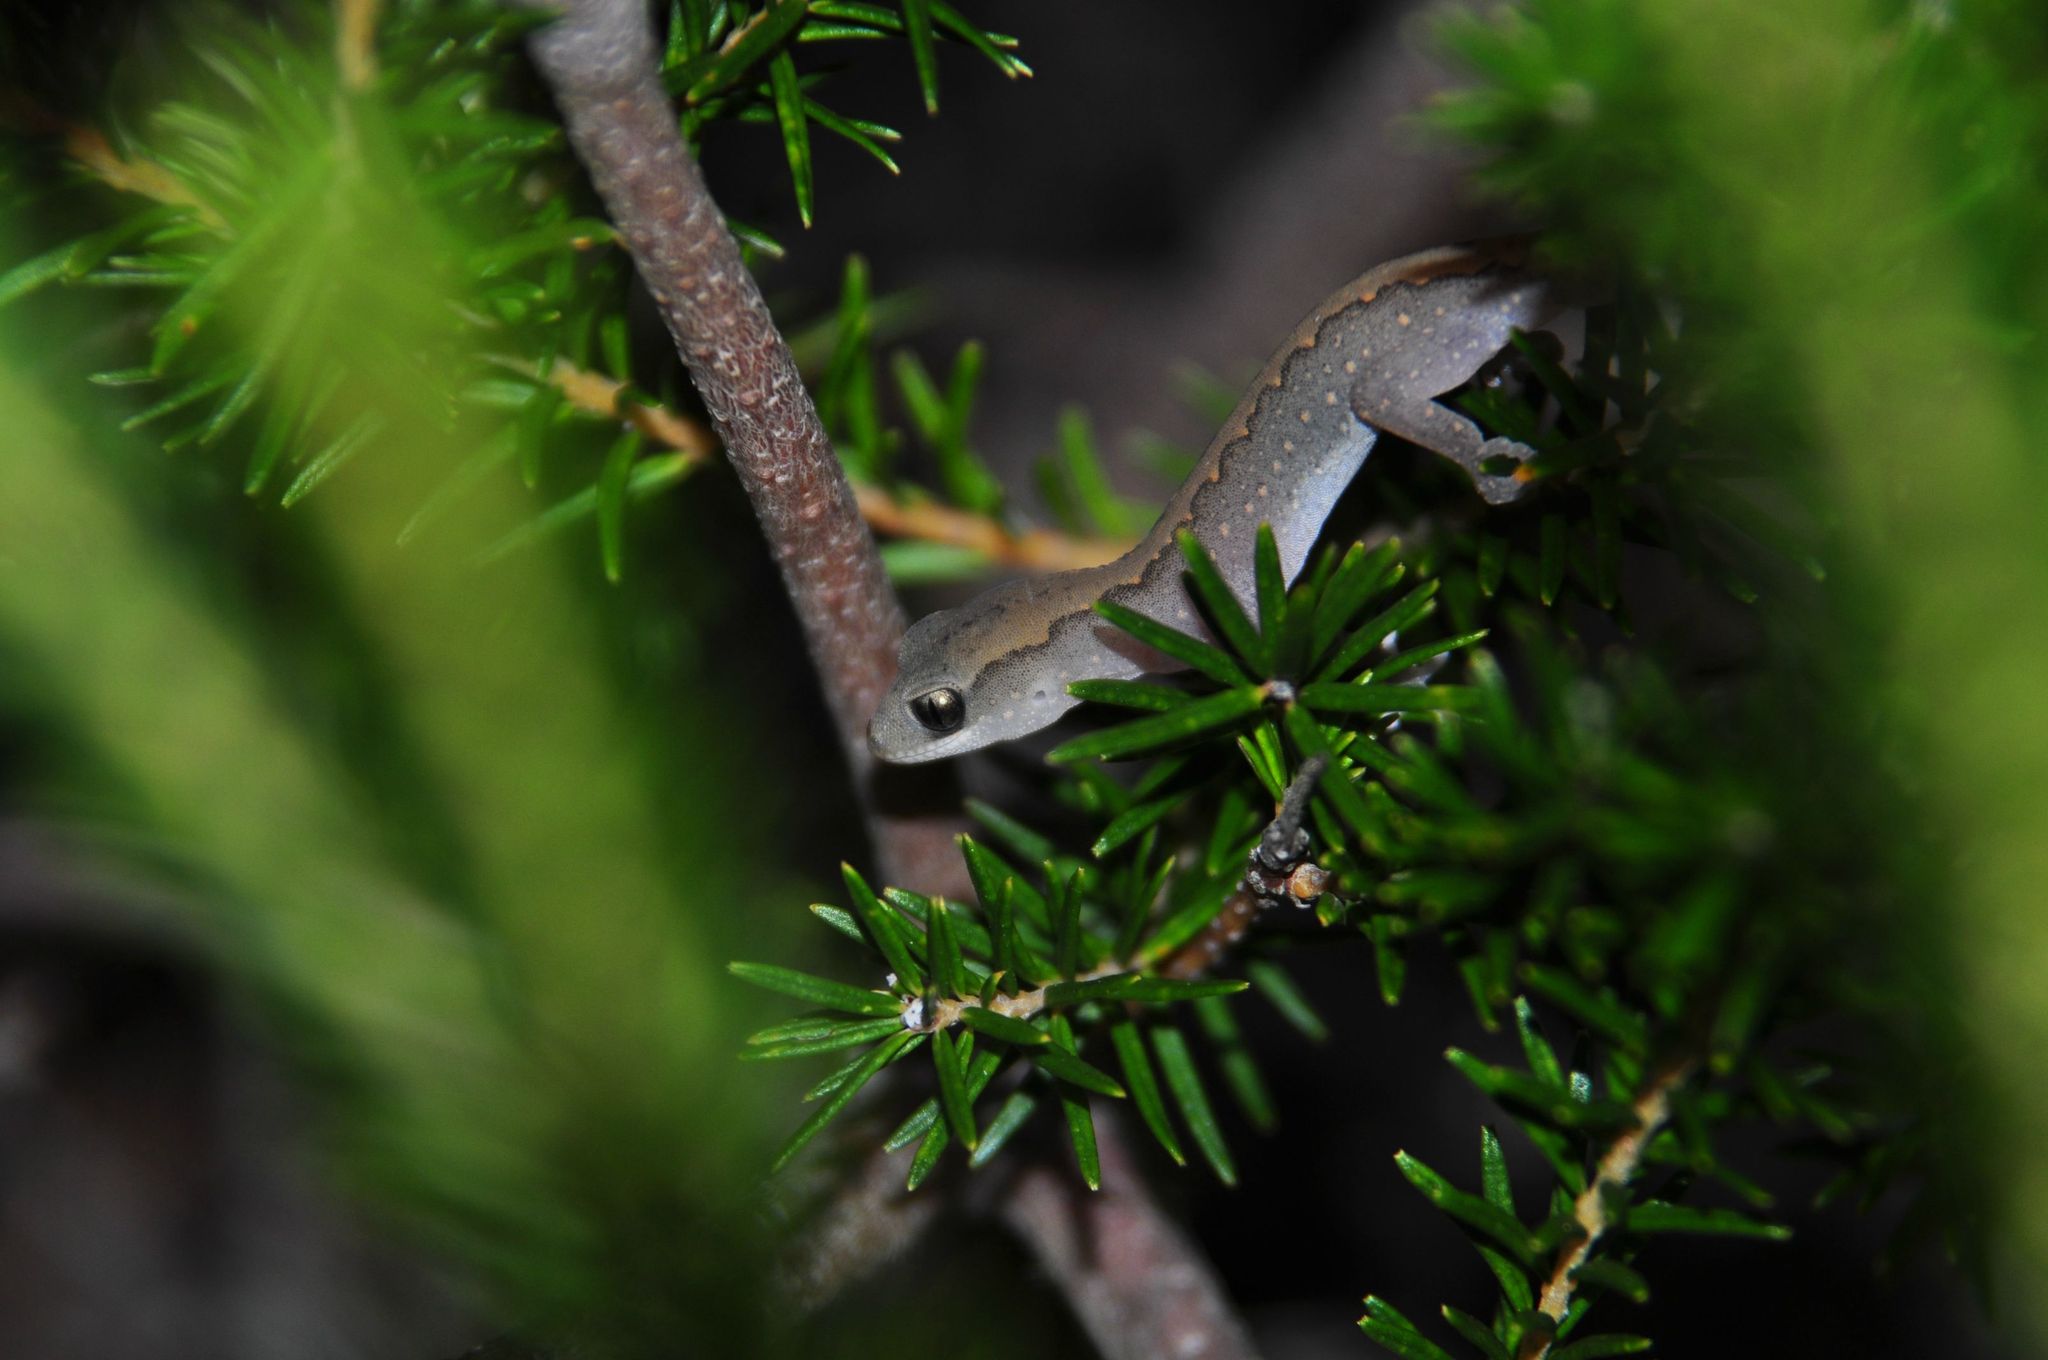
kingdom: Animalia
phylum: Chordata
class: Squamata
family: Diplodactylidae
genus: Diplodactylus
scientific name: Diplodactylus vittatus
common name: Eastern stone gecko
